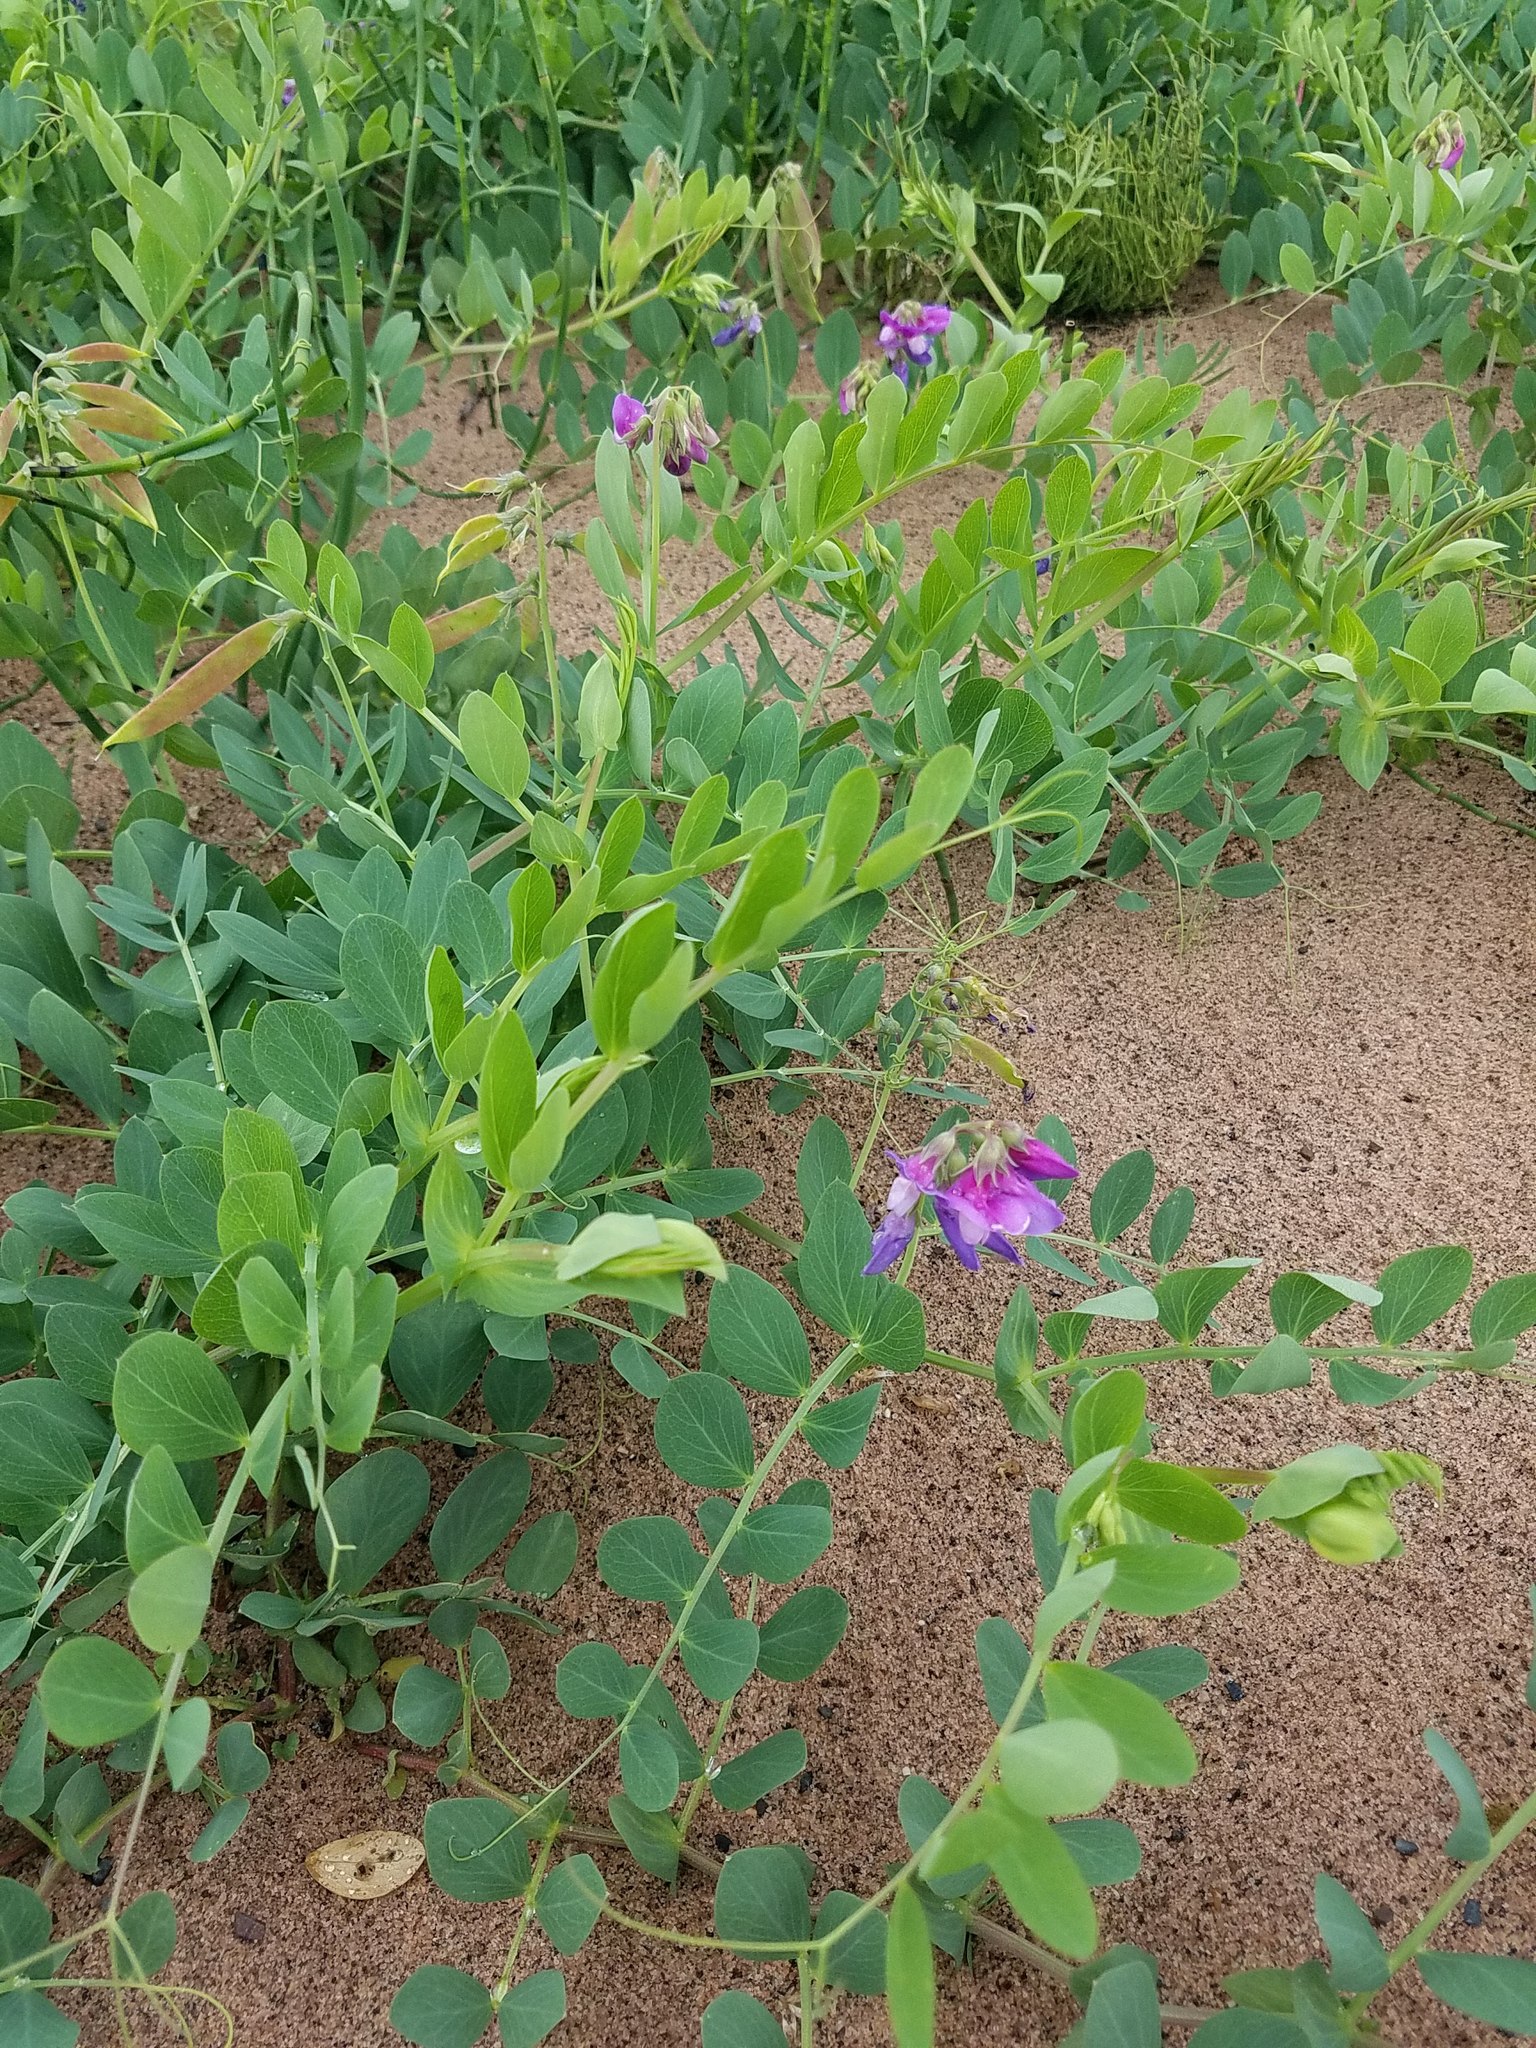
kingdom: Plantae
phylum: Tracheophyta
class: Magnoliopsida
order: Fabales
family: Fabaceae
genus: Lathyrus
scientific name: Lathyrus japonicus
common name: Sea pea
